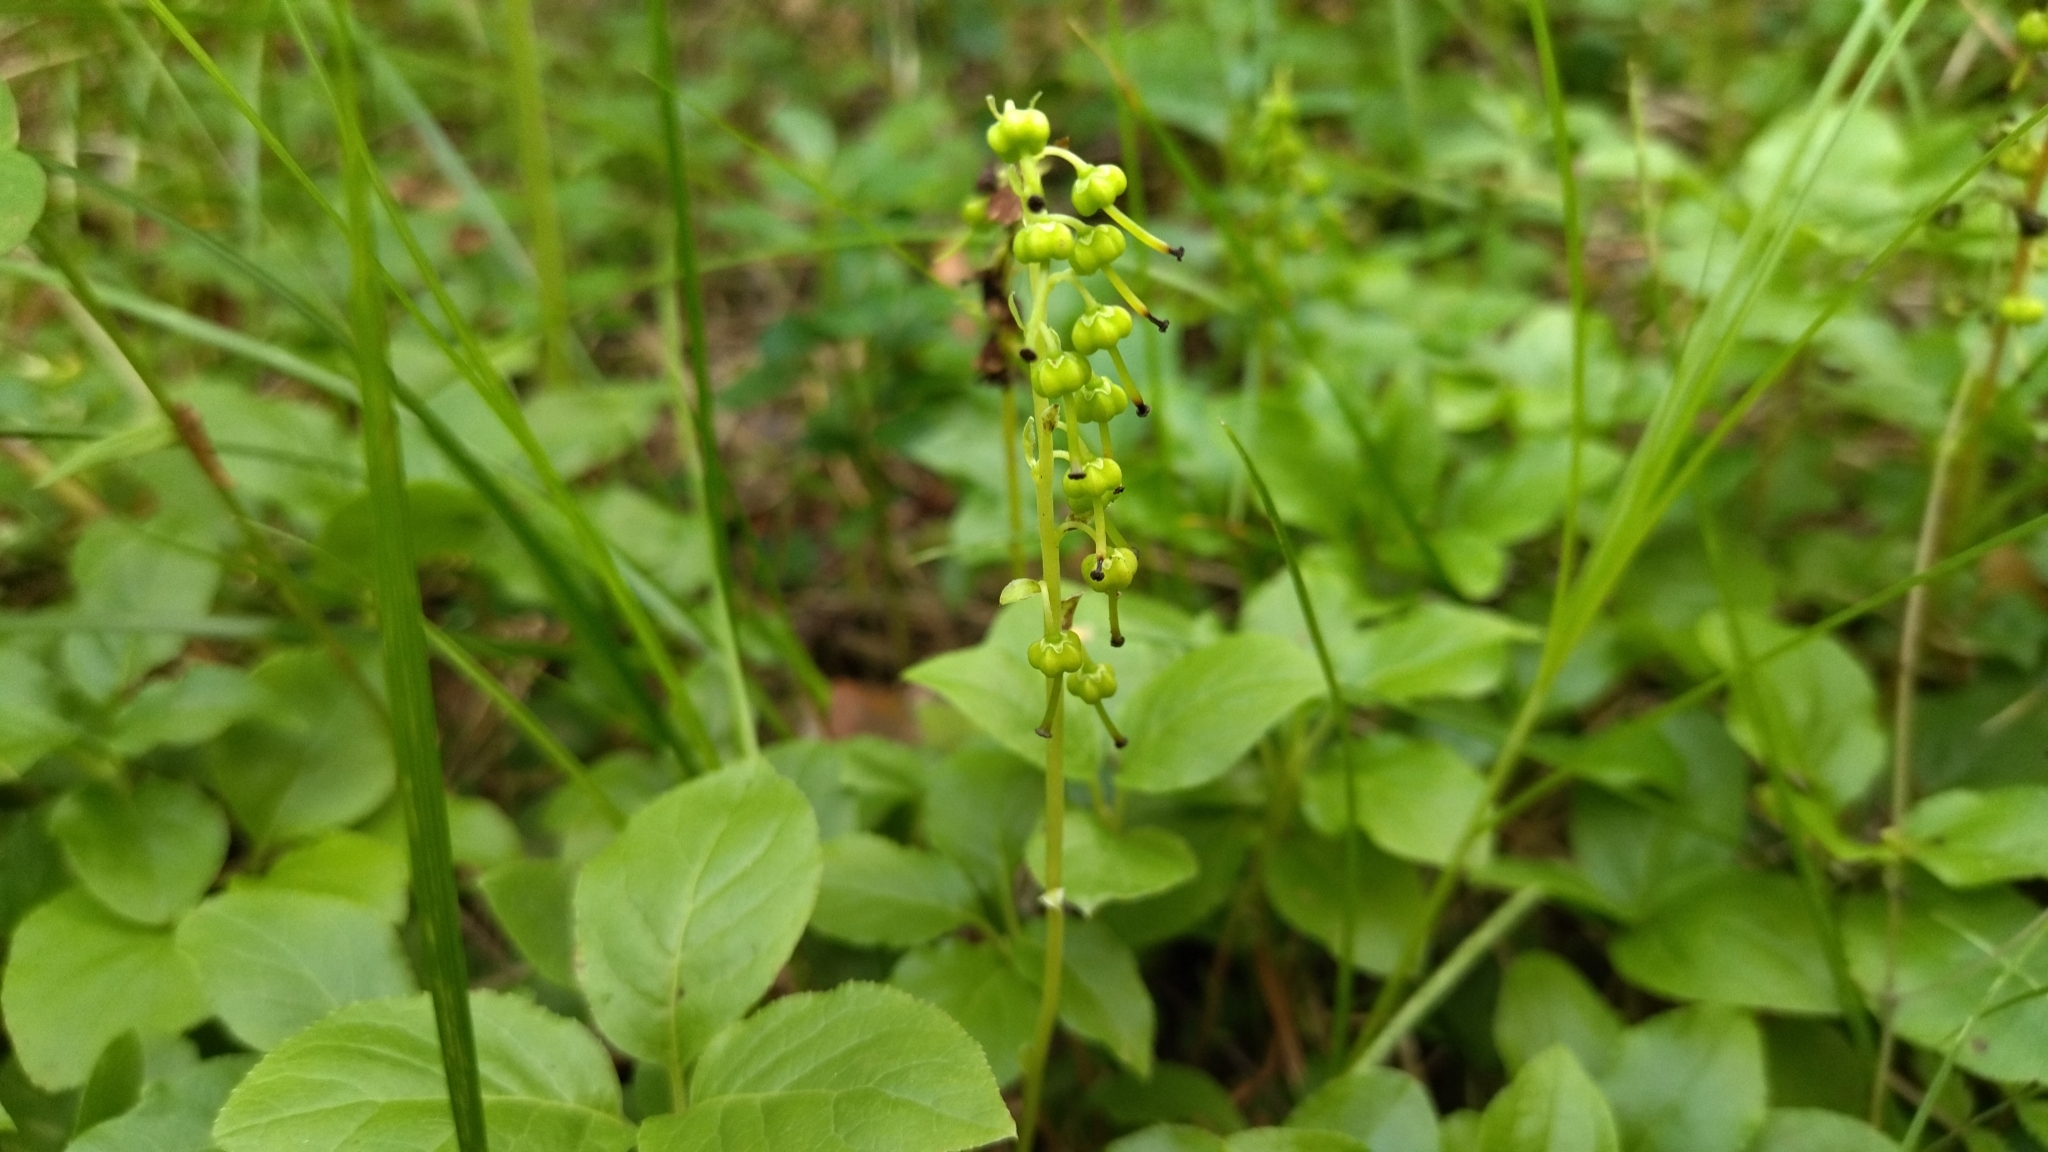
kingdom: Plantae
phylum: Tracheophyta
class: Magnoliopsida
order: Ericales
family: Ericaceae
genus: Orthilia
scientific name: Orthilia secunda
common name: One-sided orthilia
